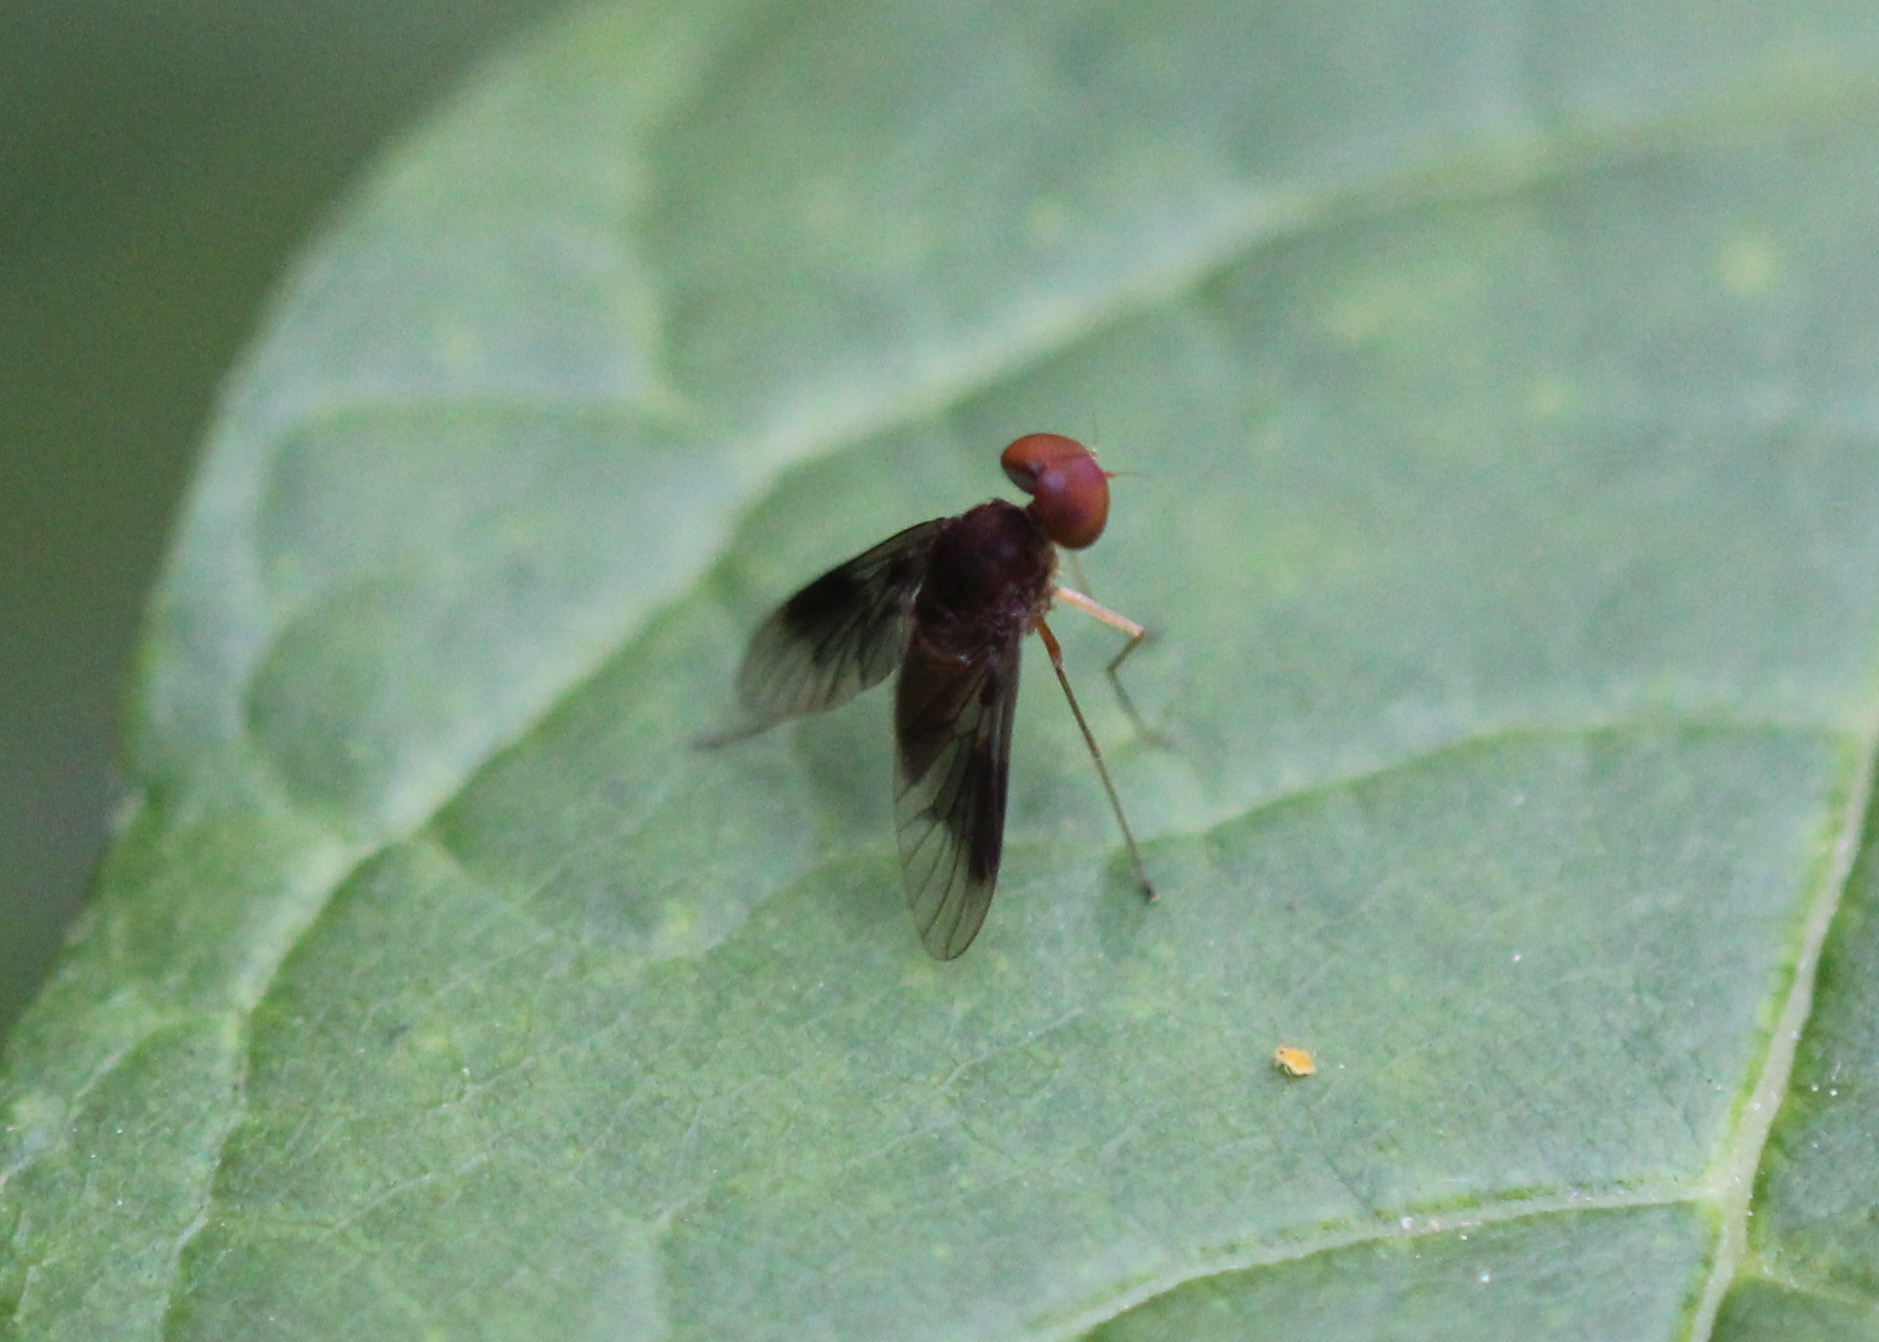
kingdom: Animalia
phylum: Arthropoda
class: Insecta
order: Diptera
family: Rhagionidae
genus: Chrysopilus
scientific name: Chrysopilus quadratus
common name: Quadrate snipe fly
